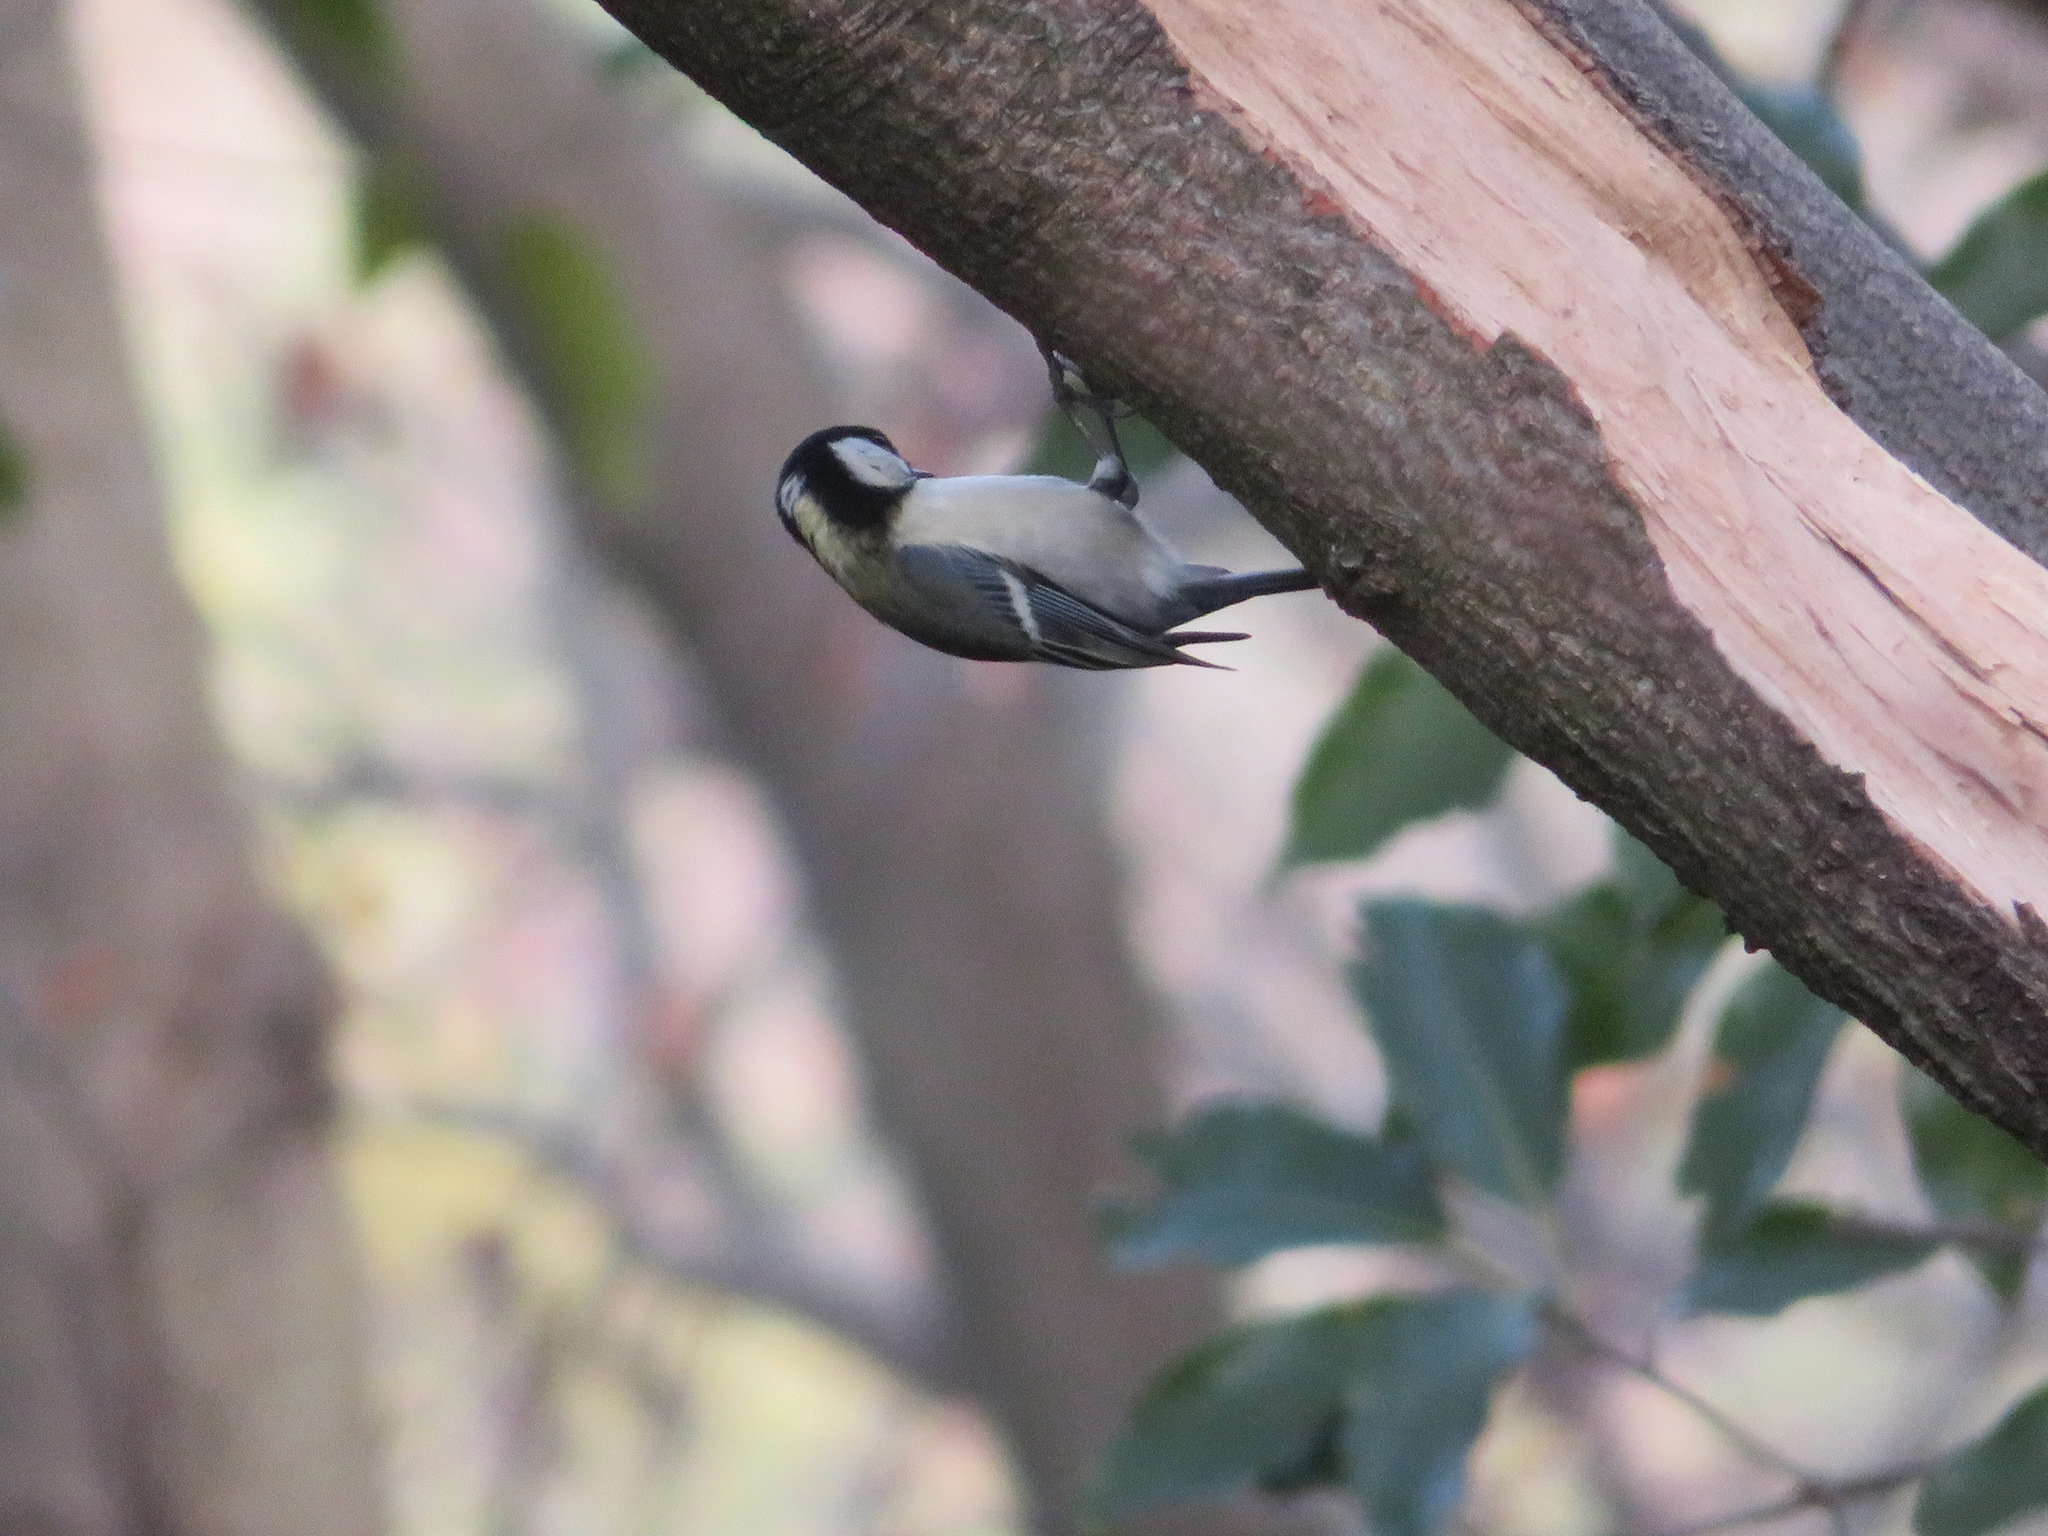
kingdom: Animalia
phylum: Chordata
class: Aves
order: Passeriformes
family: Paridae
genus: Parus
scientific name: Parus minor
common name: Japanese tit
